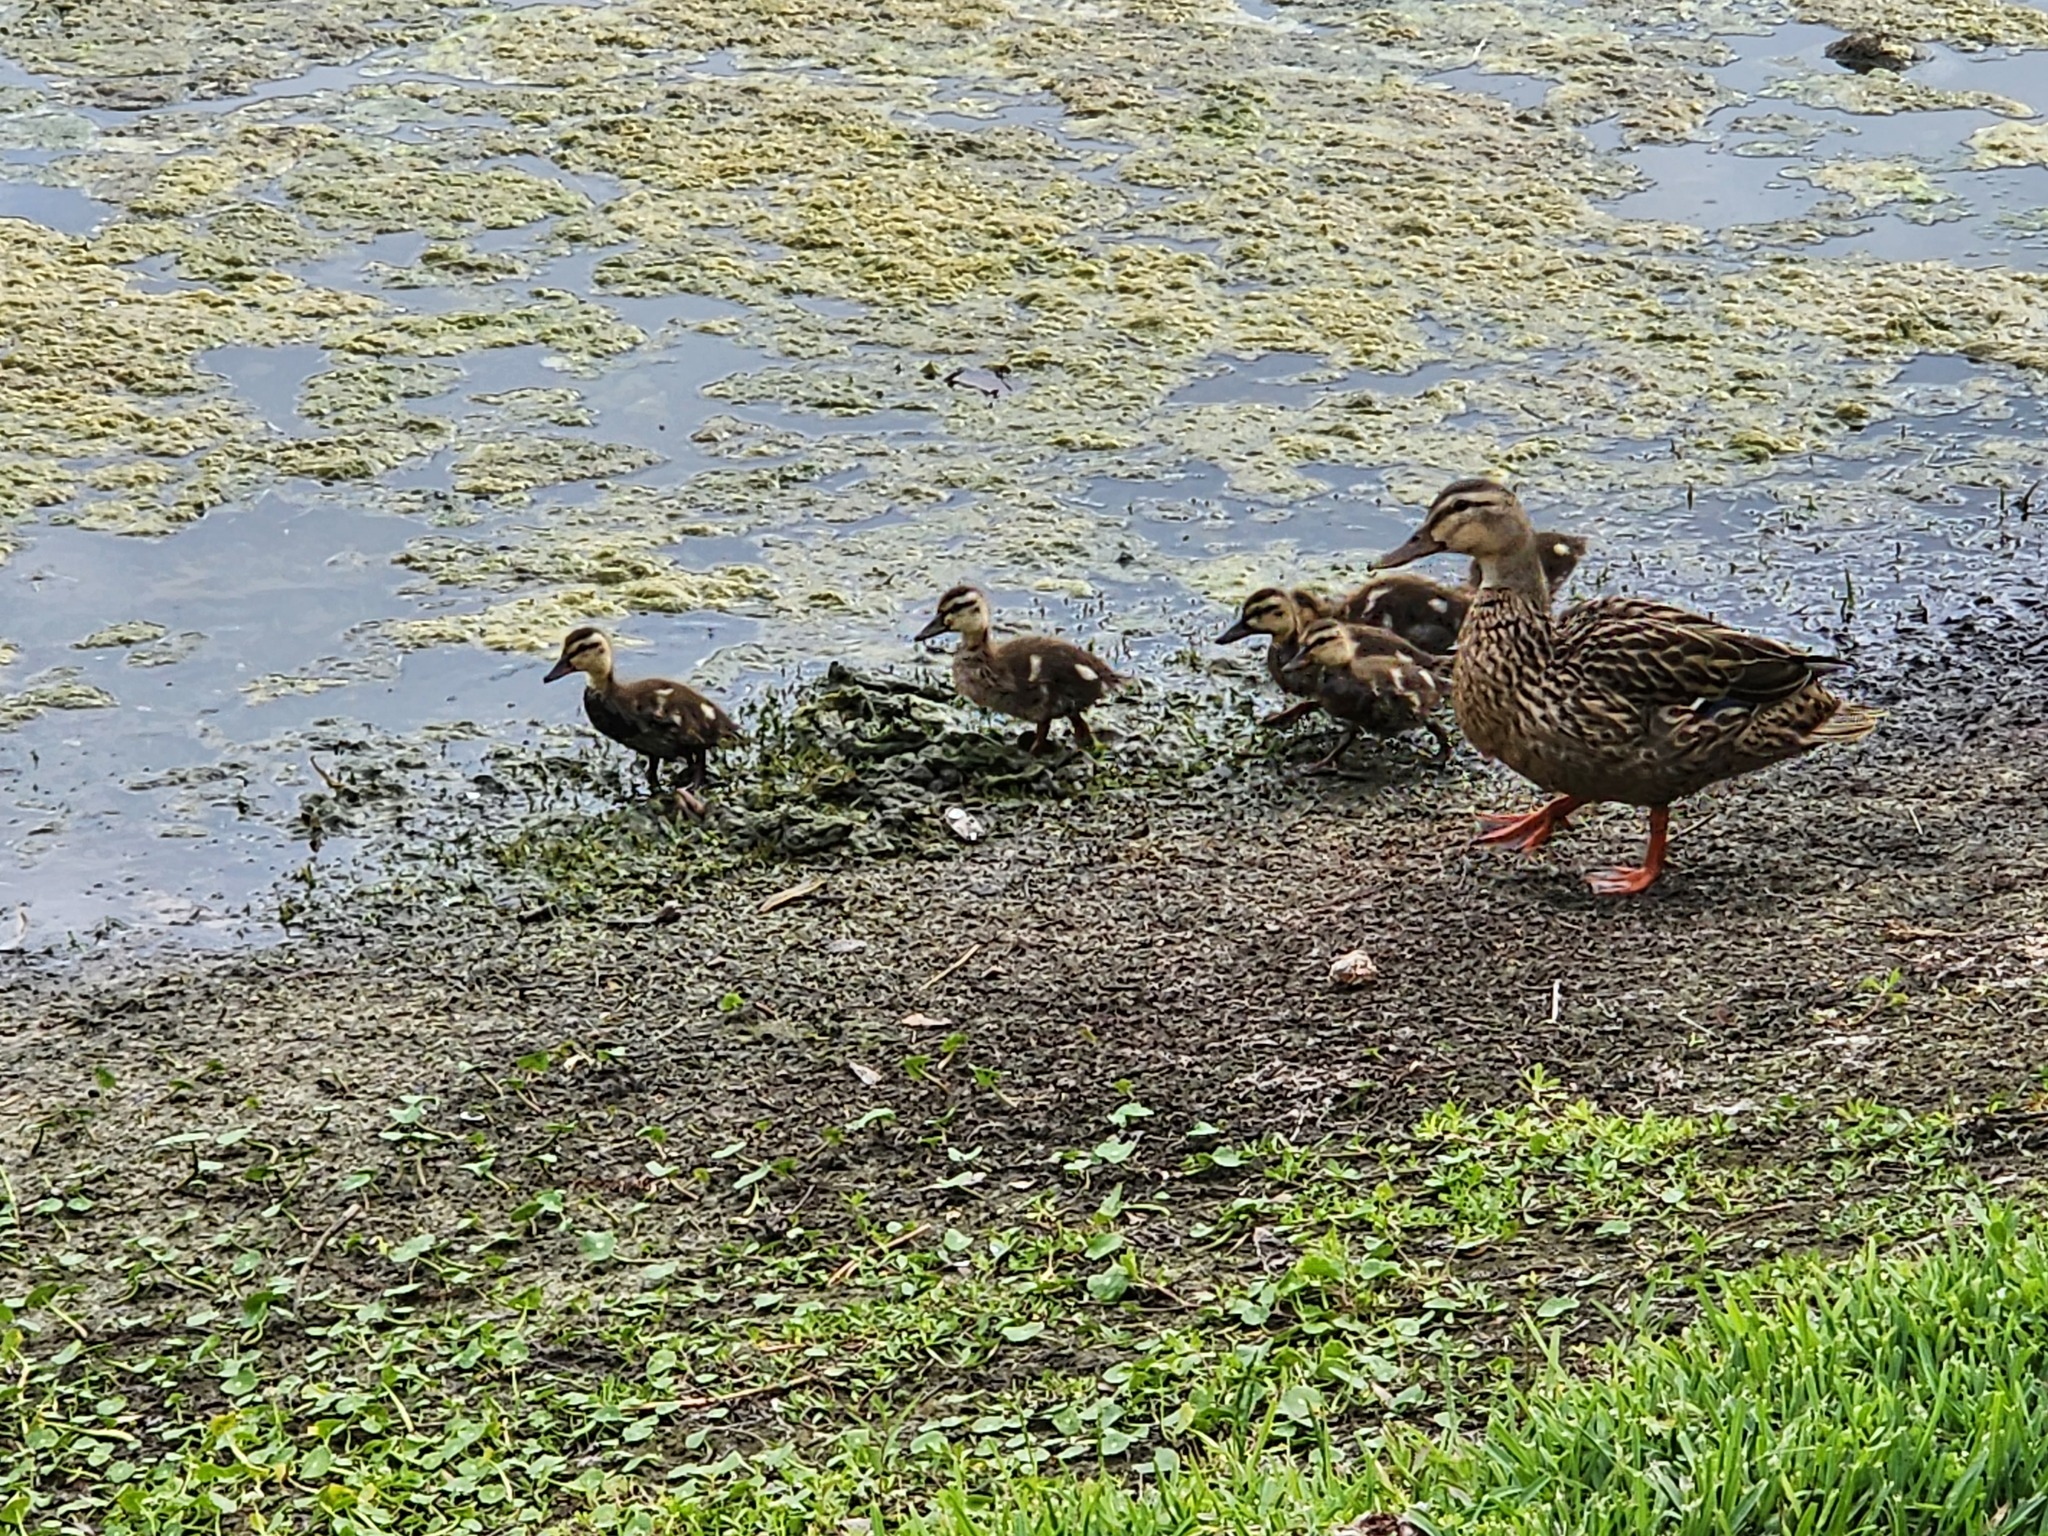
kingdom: Animalia
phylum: Chordata
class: Aves
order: Anseriformes
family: Anatidae
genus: Anas
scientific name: Anas
